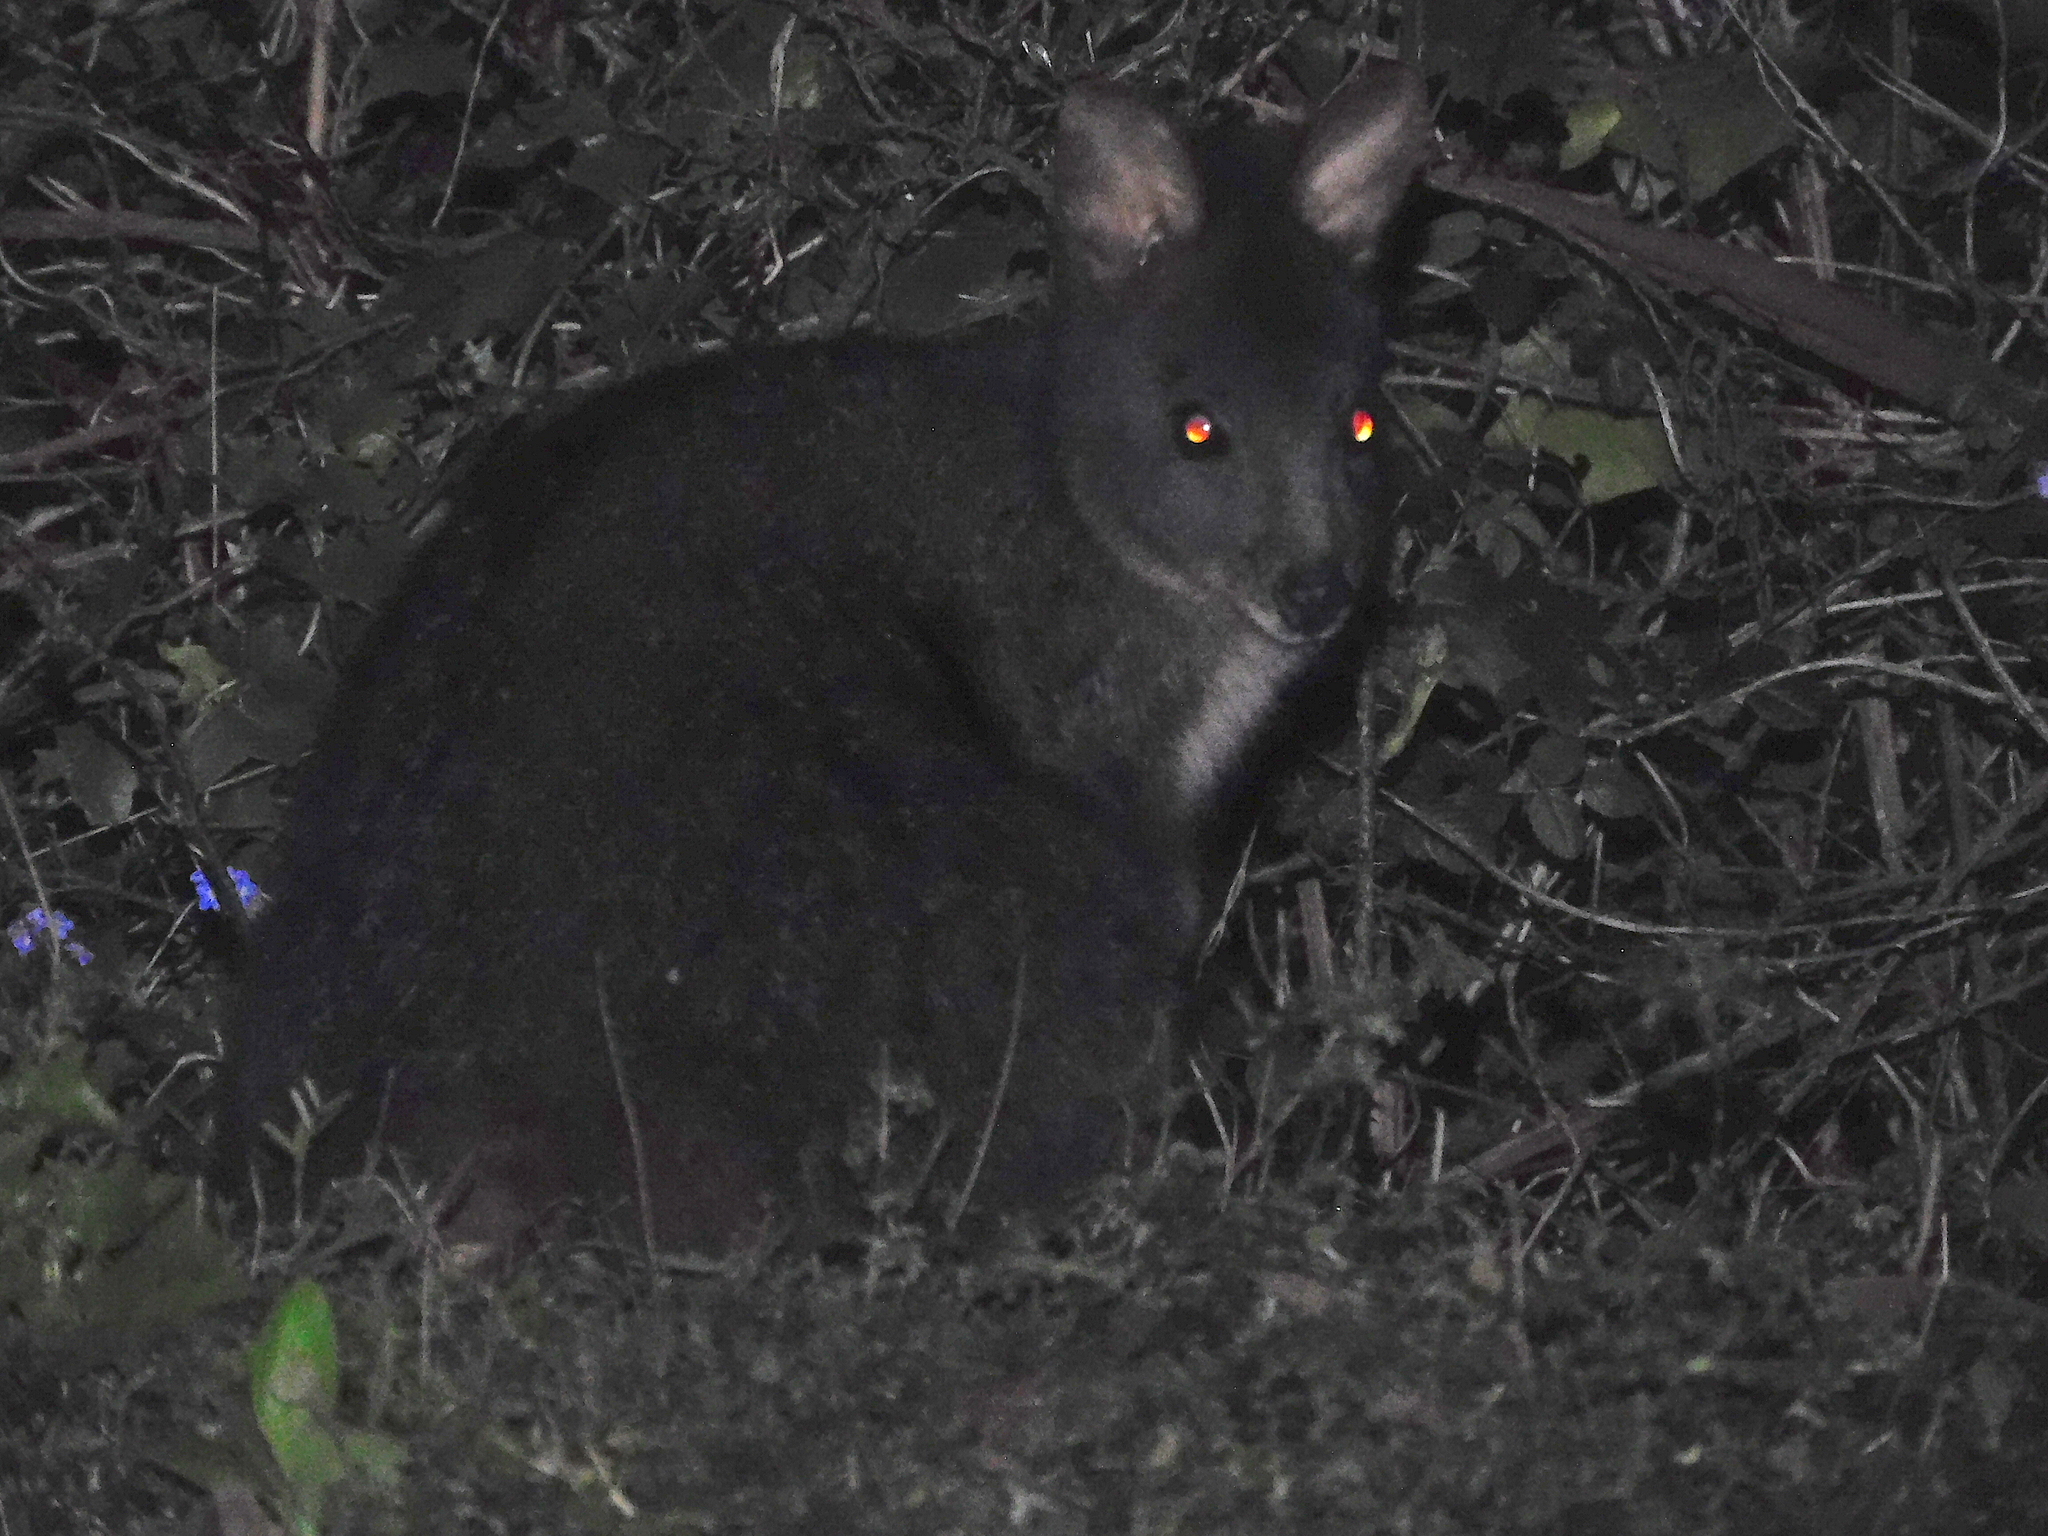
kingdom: Animalia
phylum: Chordata
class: Mammalia
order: Diprotodontia
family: Macropodidae
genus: Thylogale
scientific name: Thylogale billardierii
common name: Tasmanian pademelon
